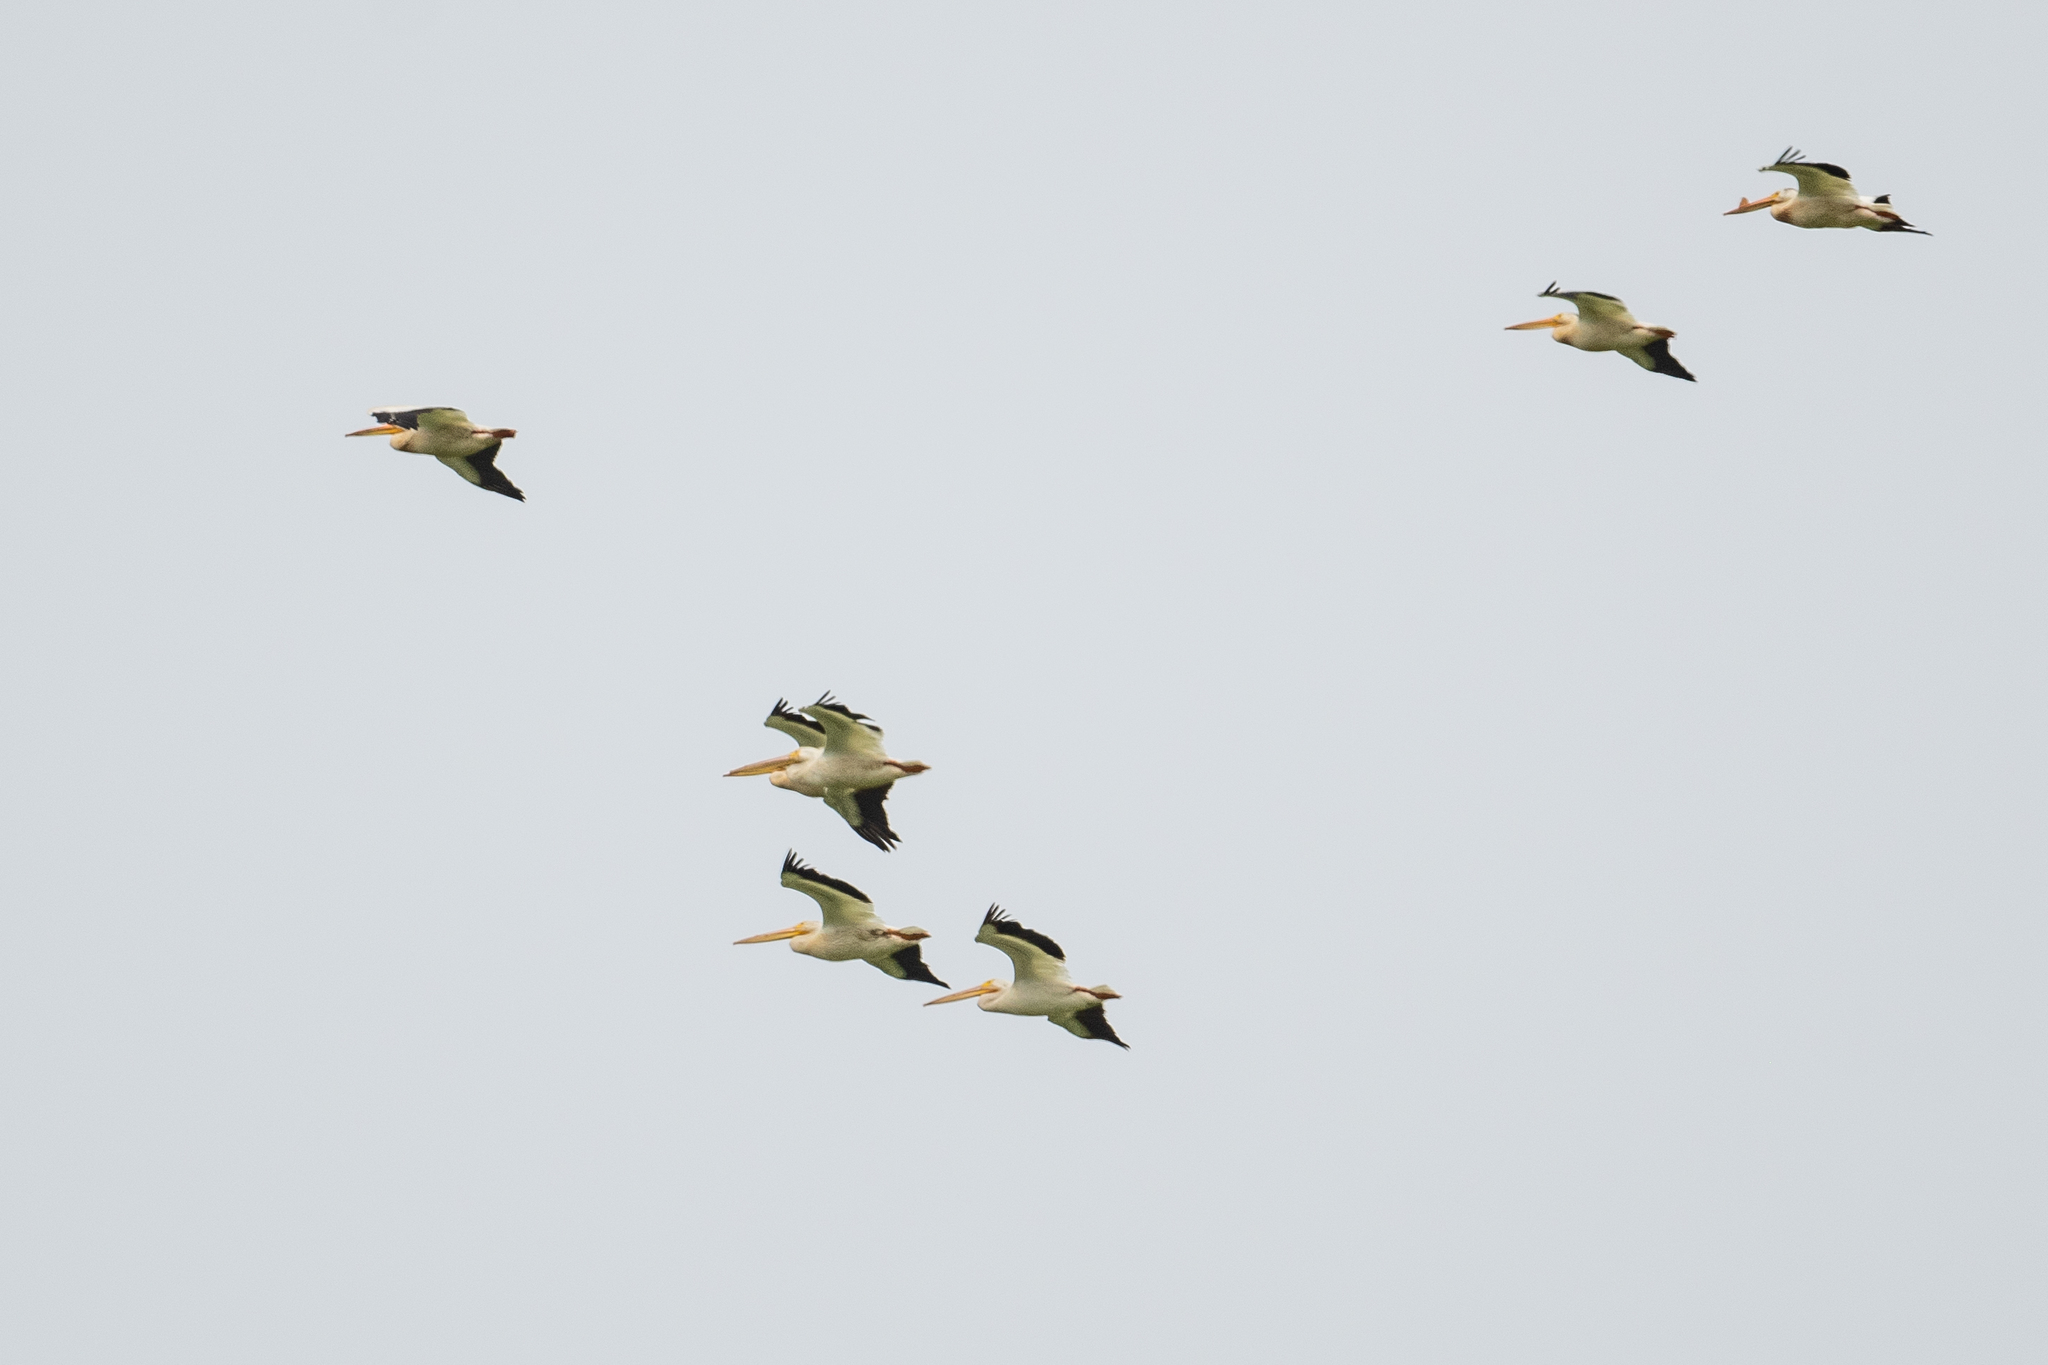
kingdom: Animalia
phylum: Chordata
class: Aves
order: Pelecaniformes
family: Pelecanidae
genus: Pelecanus
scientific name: Pelecanus erythrorhynchos
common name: American white pelican
